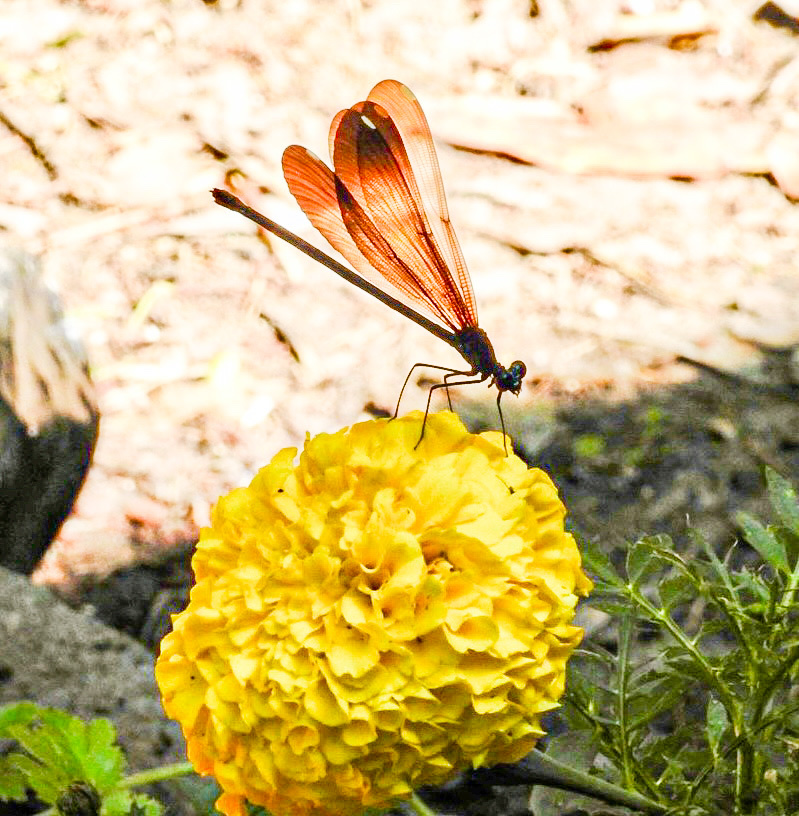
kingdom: Animalia
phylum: Arthropoda
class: Insecta
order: Odonata
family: Calopterygidae
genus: Calopteryx
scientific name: Calopteryx dimidiata
